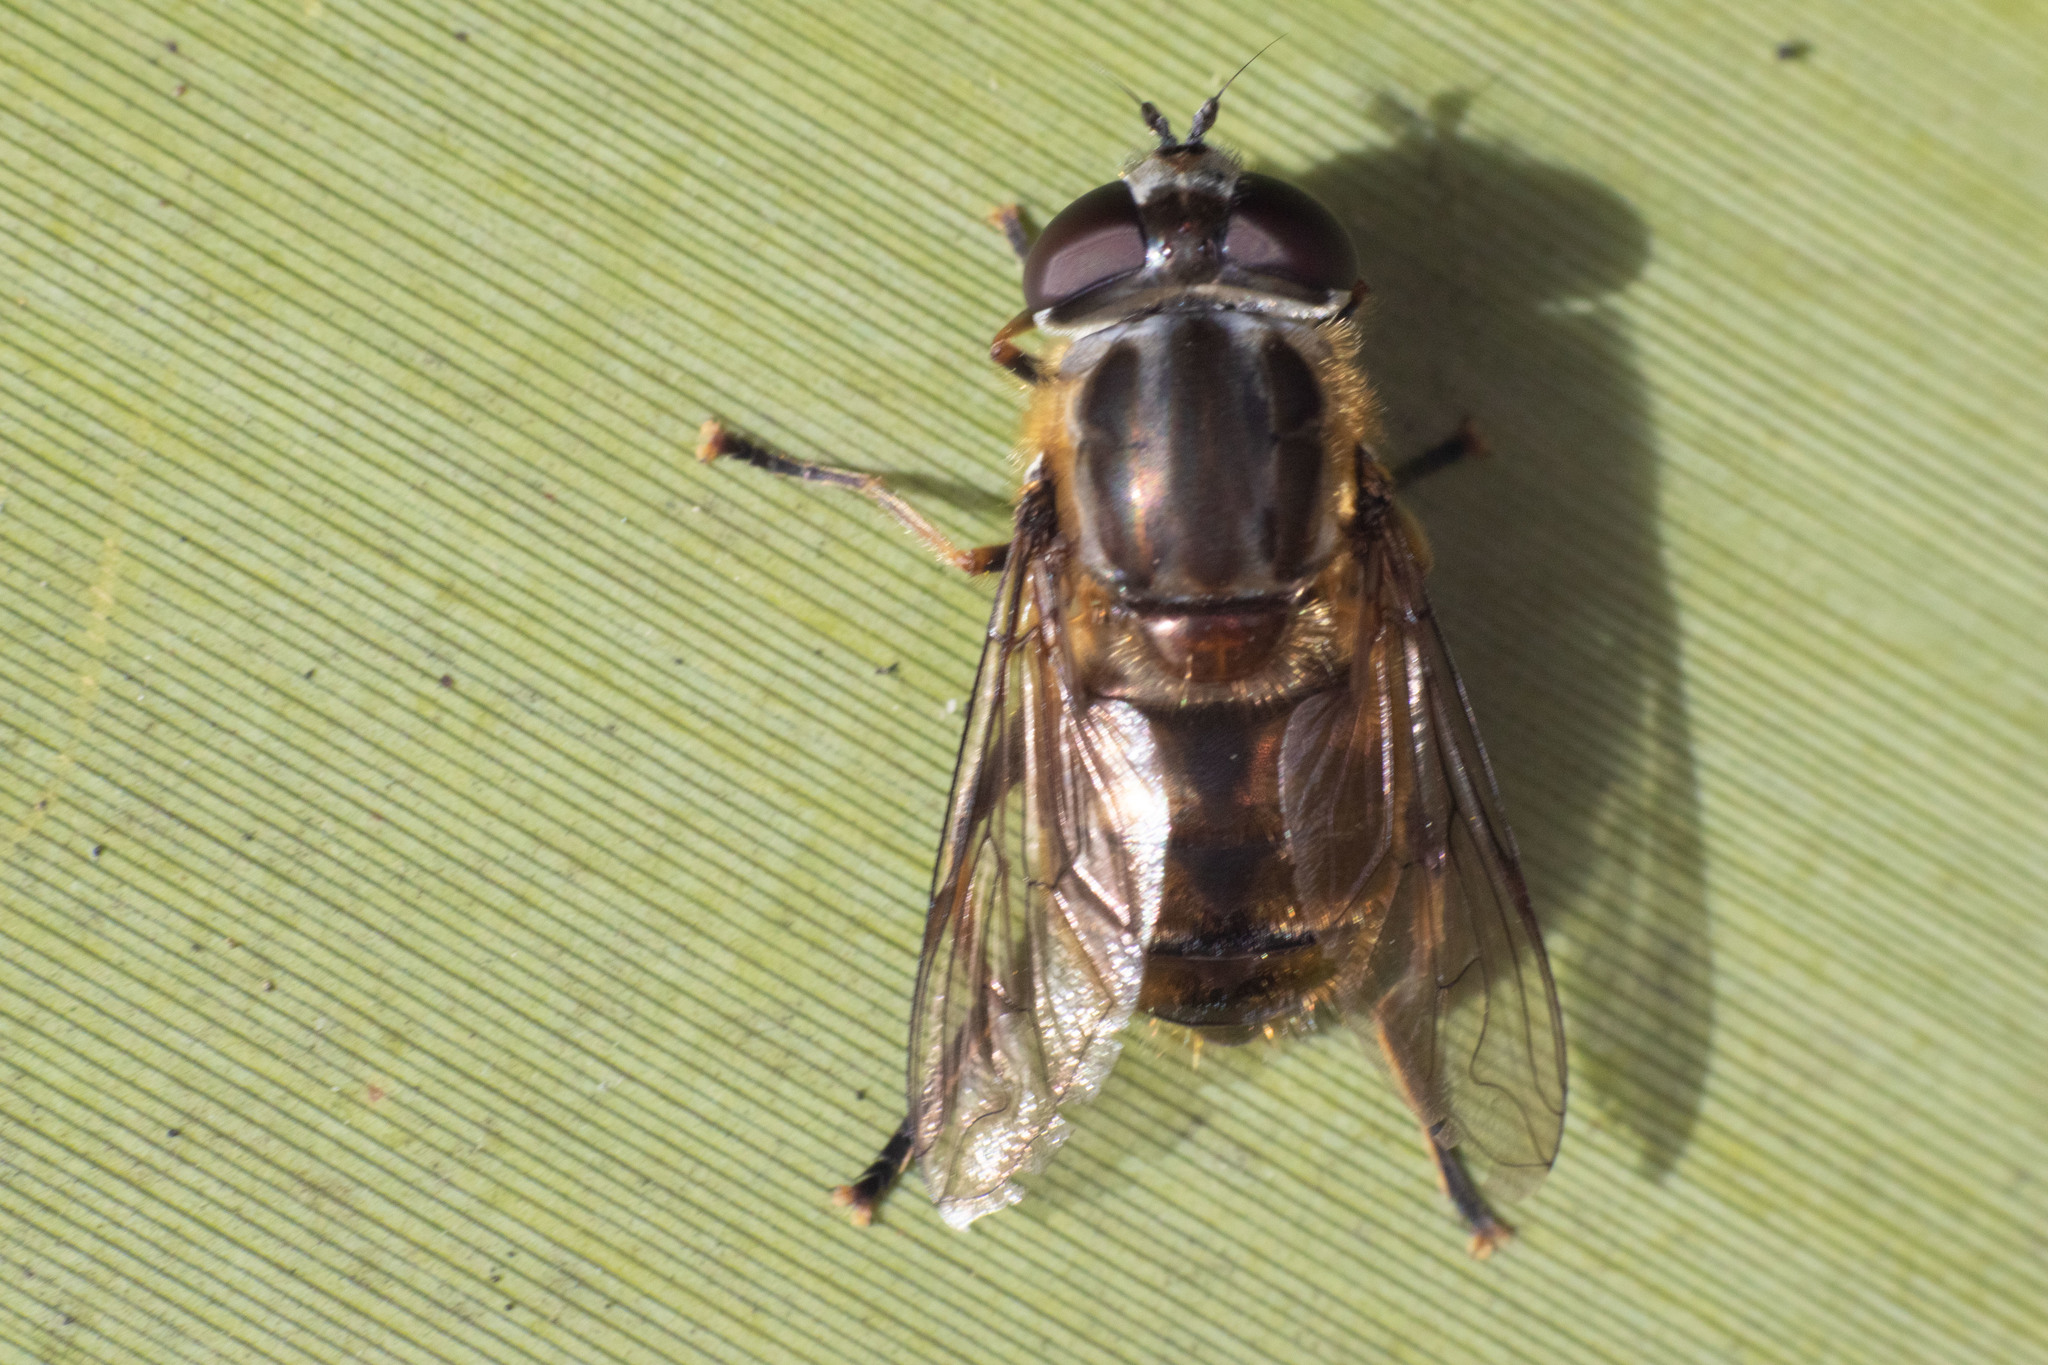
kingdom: Animalia
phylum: Arthropoda
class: Insecta
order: Diptera
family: Syrphidae
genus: Helophilus
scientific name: Helophilus ineptus
